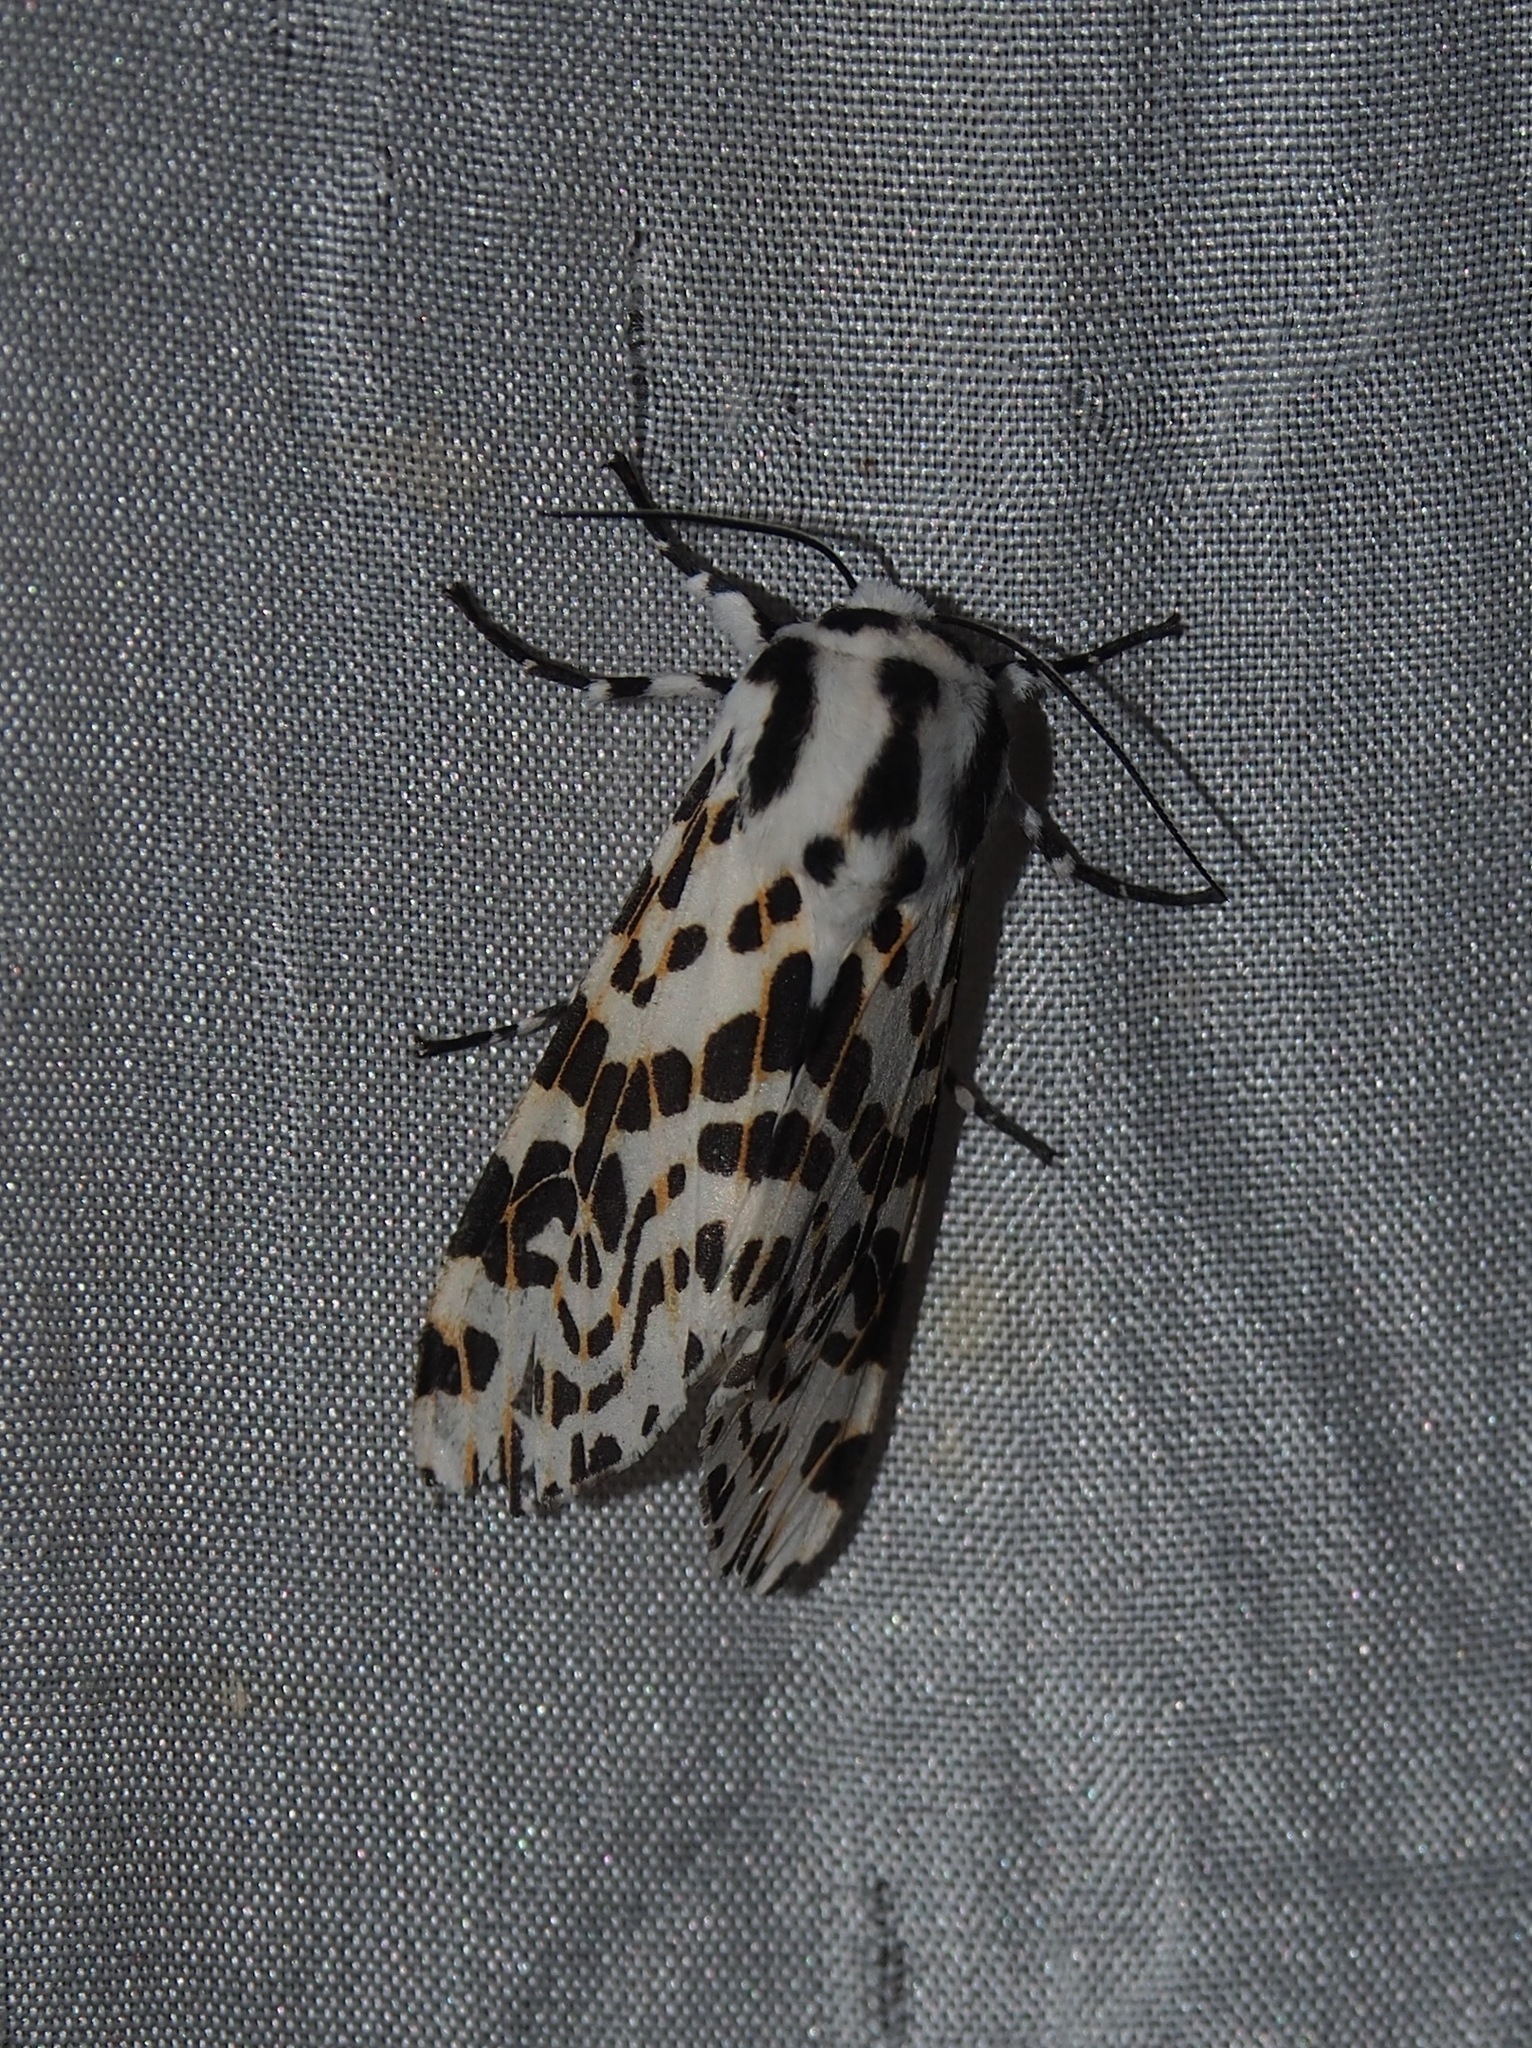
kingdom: Animalia
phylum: Arthropoda
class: Insecta
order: Lepidoptera
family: Erebidae
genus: Hypercompe
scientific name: Hypercompe ecpantherioides
